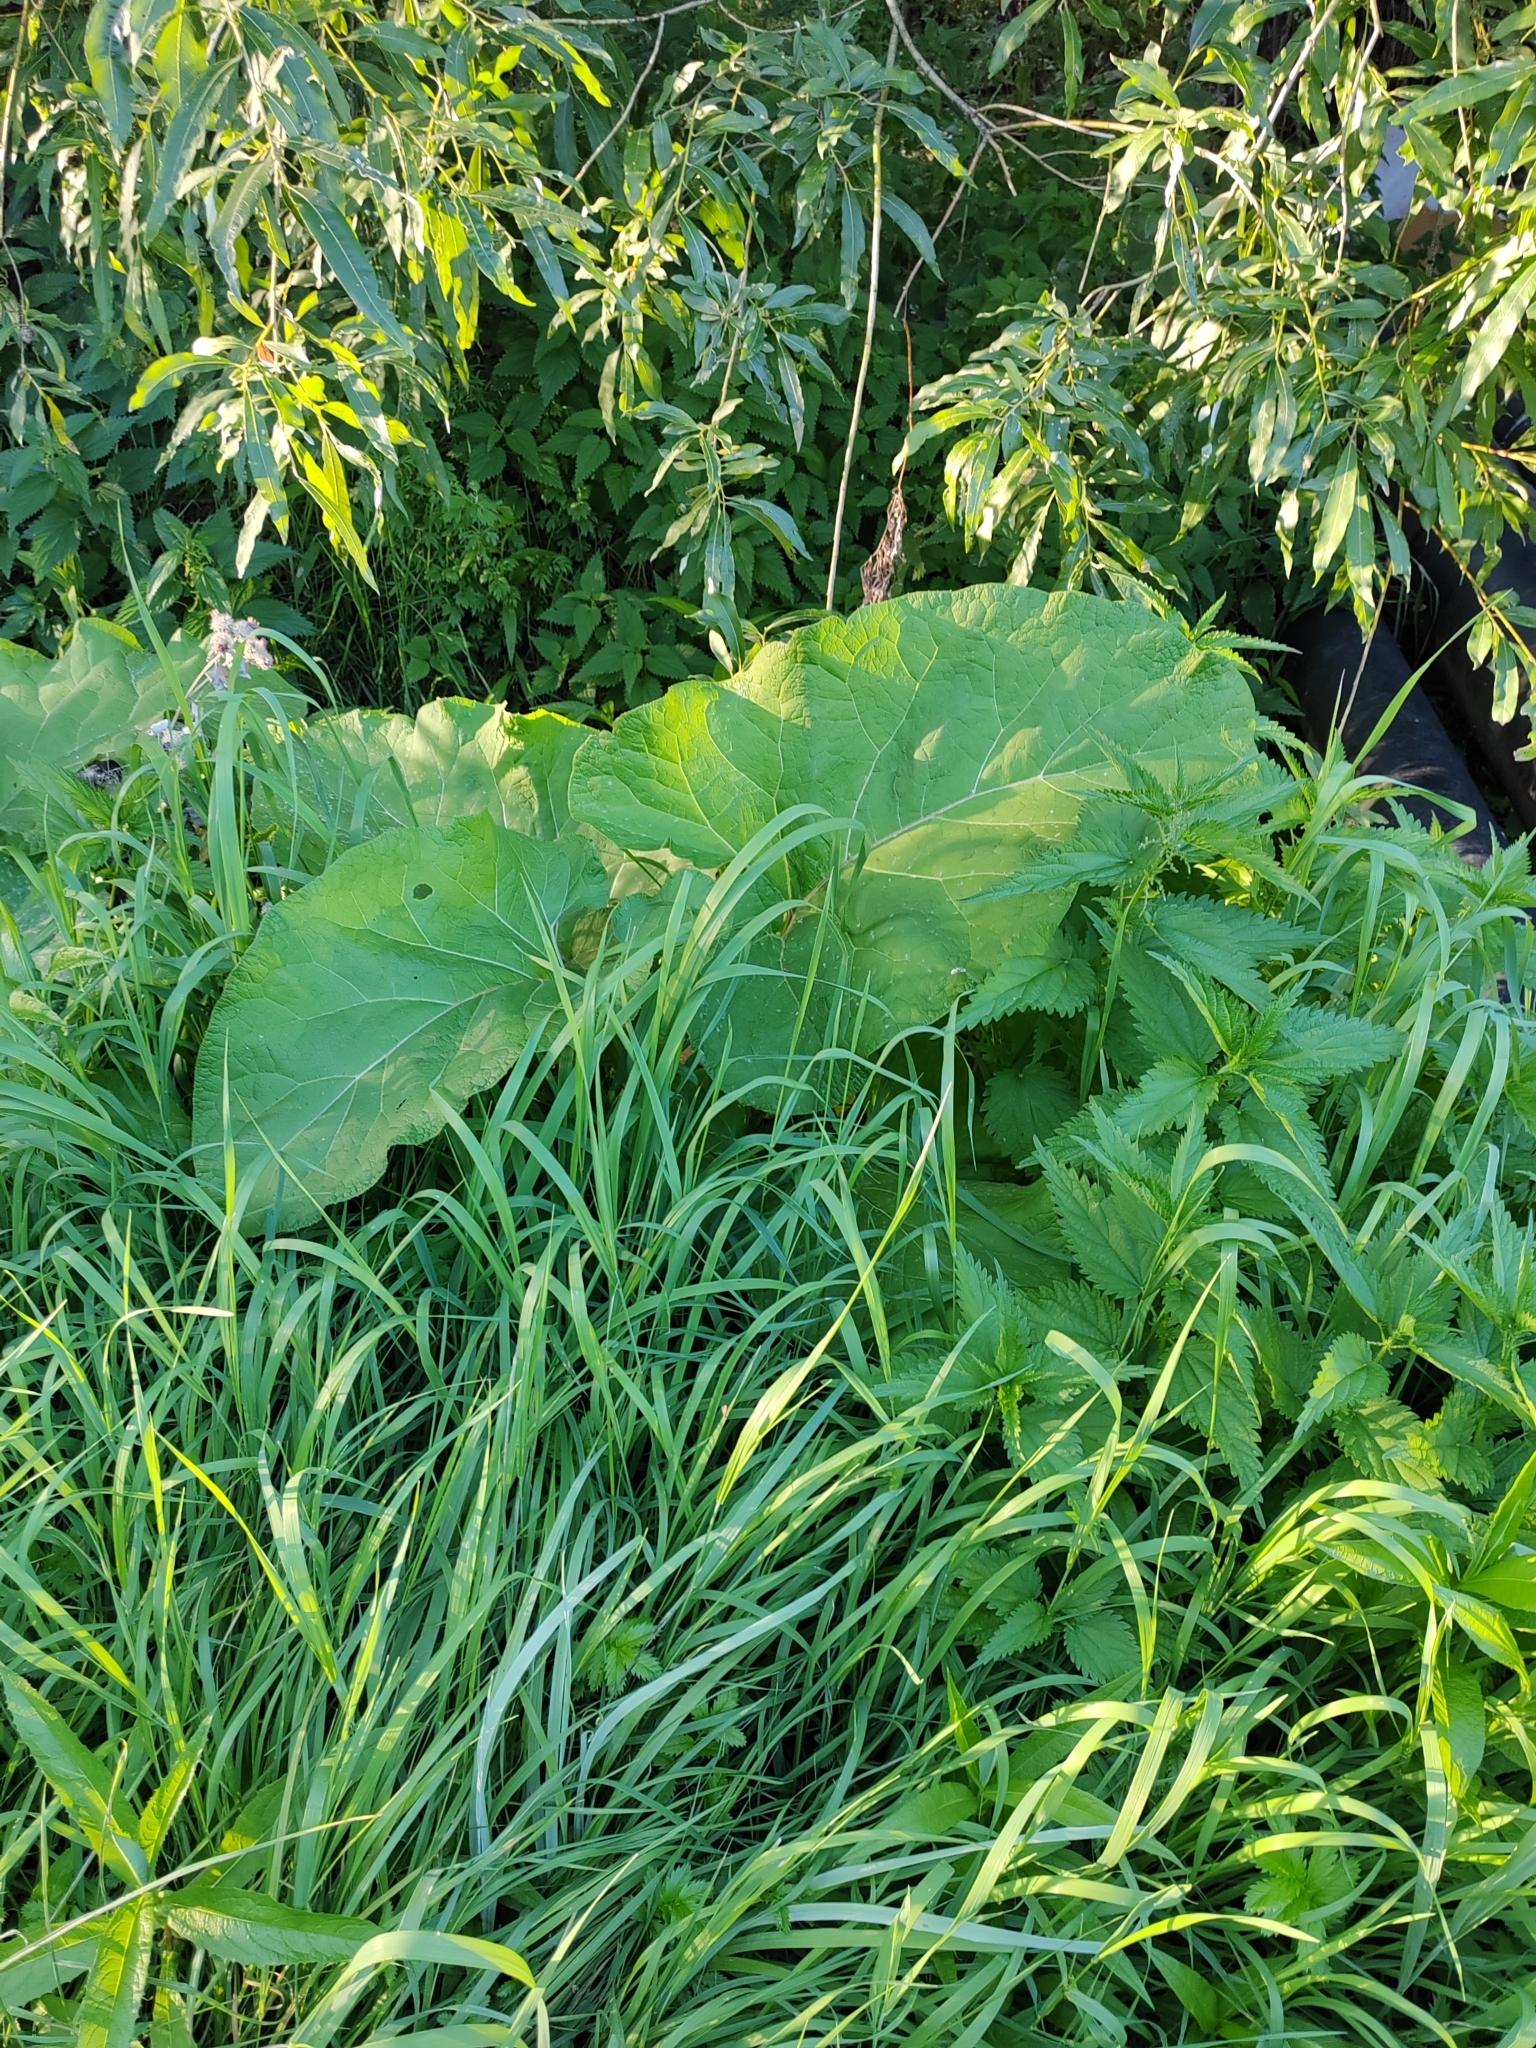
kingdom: Plantae
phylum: Tracheophyta
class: Magnoliopsida
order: Asterales
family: Asteraceae
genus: Arctium
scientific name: Arctium tomentosum
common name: Woolly burdock
